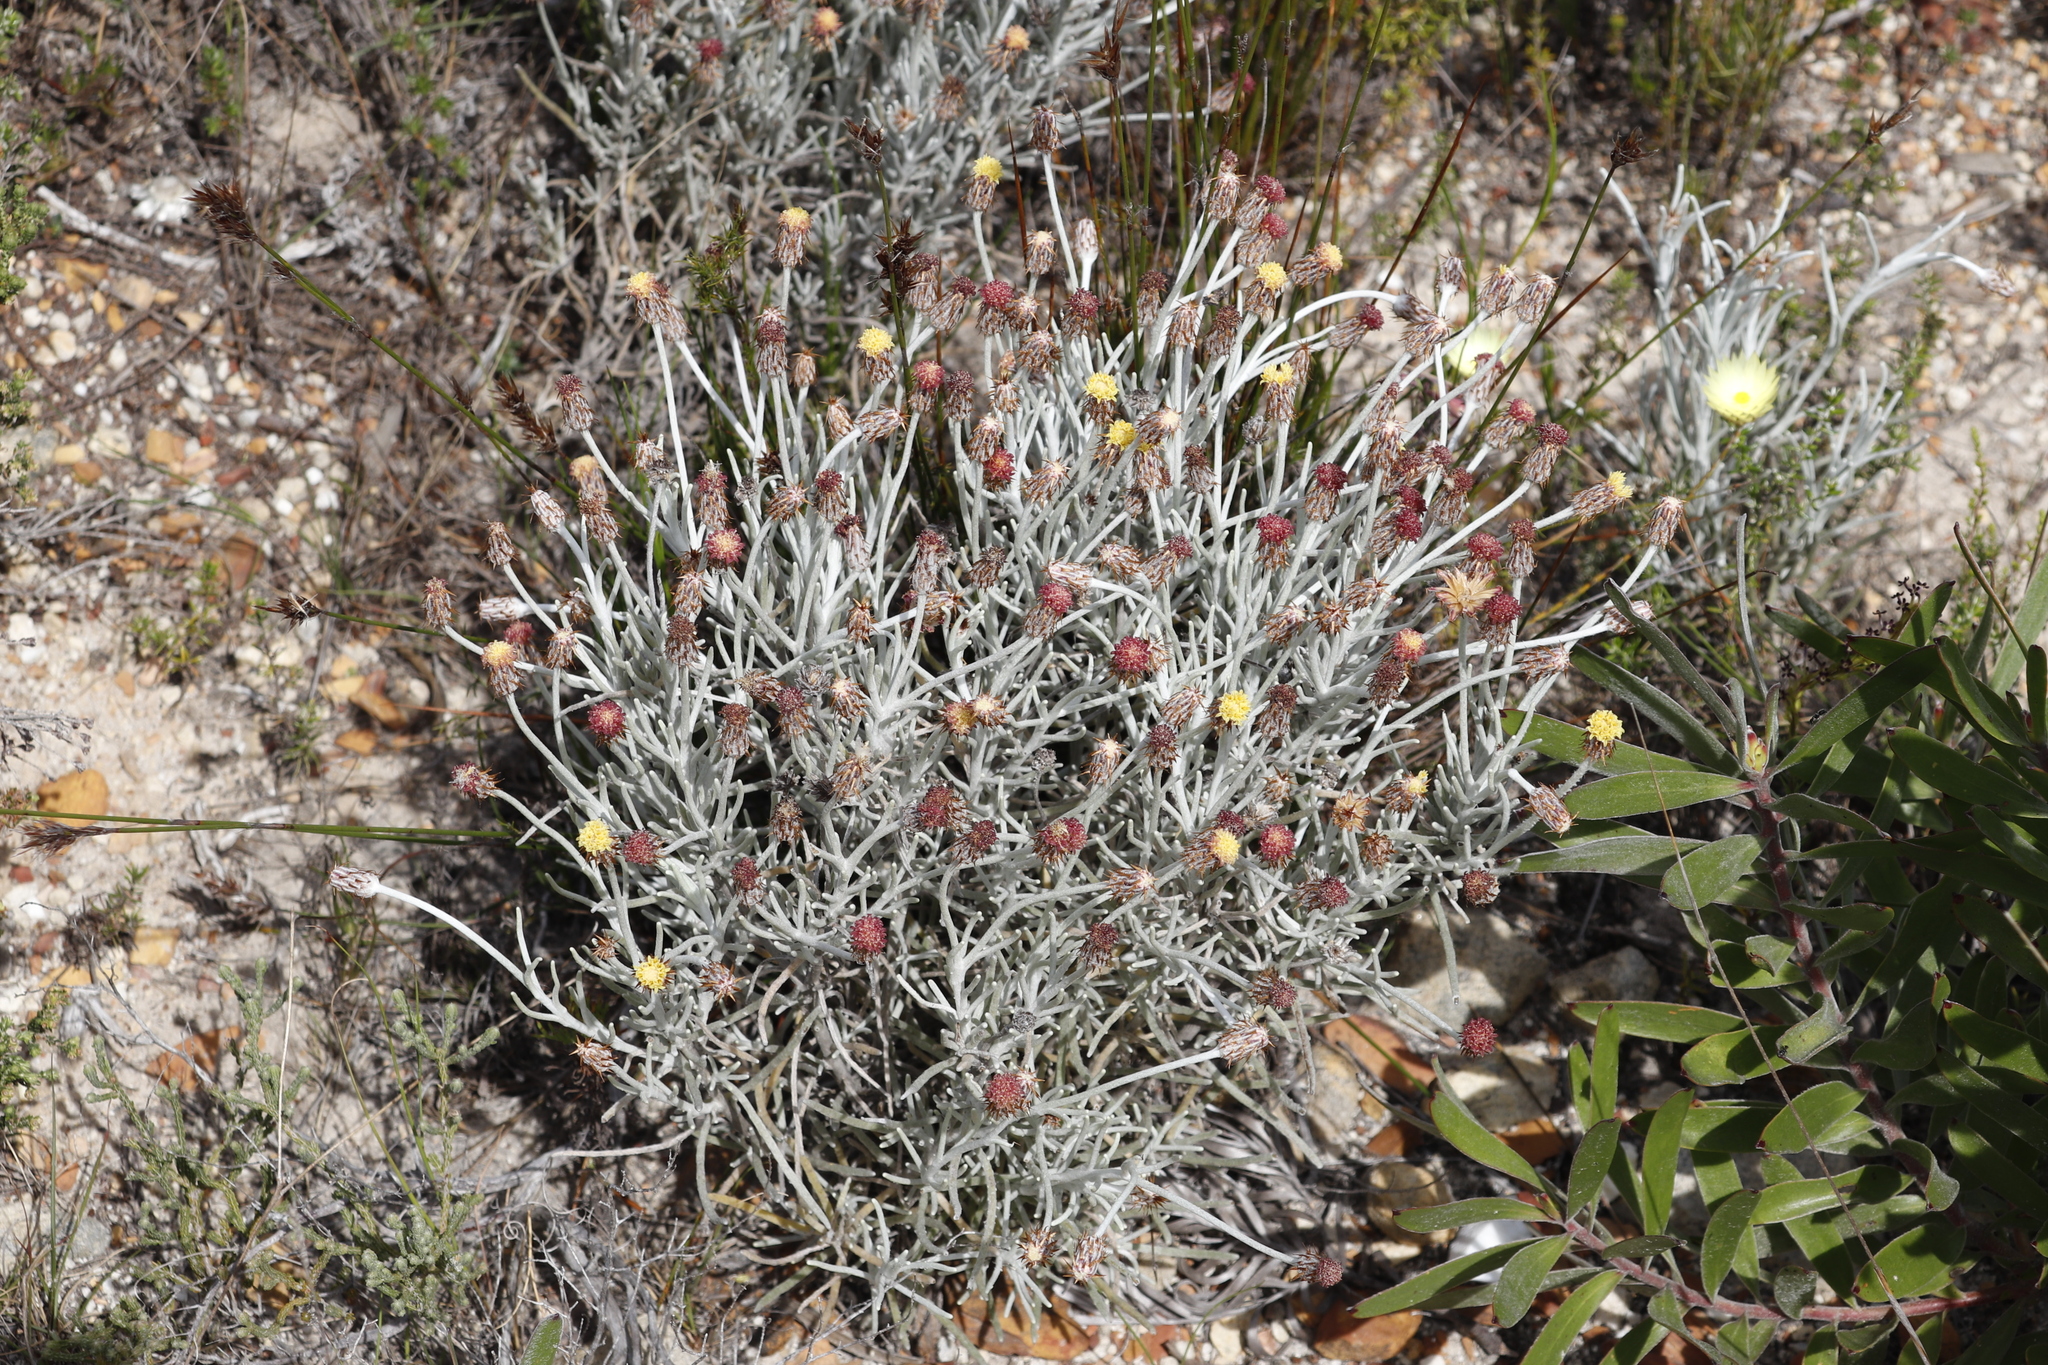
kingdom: Plantae
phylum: Tracheophyta
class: Magnoliopsida
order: Asterales
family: Asteraceae
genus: Syncarpha
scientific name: Syncarpha gnaphaloides
